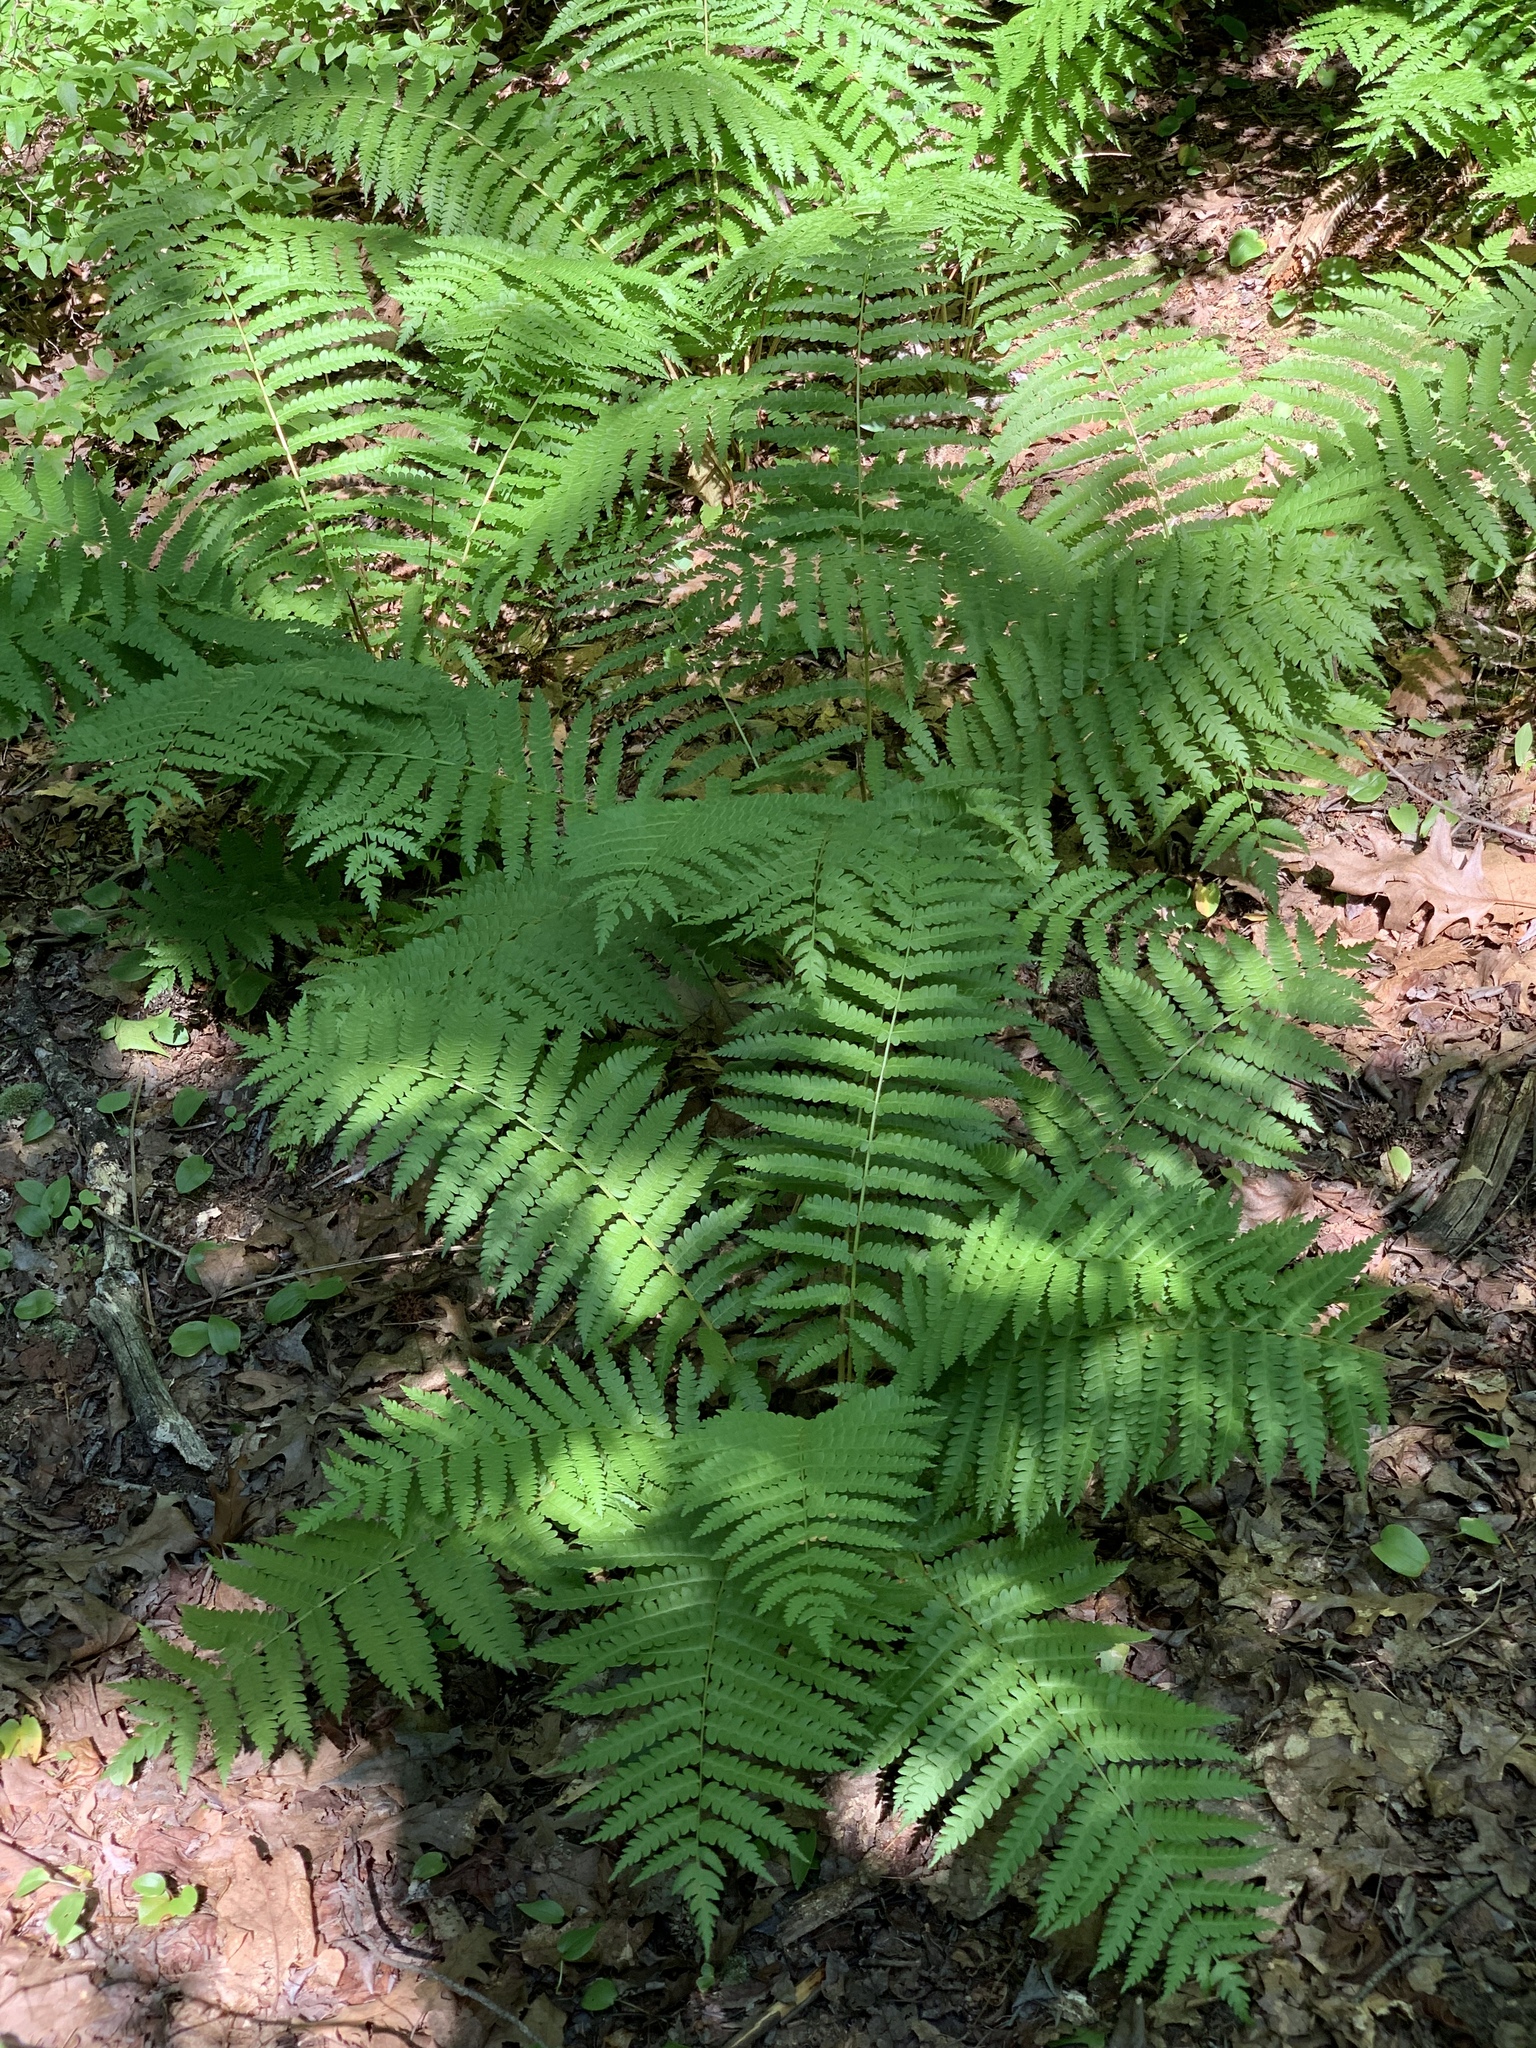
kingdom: Plantae
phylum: Tracheophyta
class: Polypodiopsida
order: Osmundales
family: Osmundaceae
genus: Osmundastrum
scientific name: Osmundastrum cinnamomeum
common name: Cinnamon fern
